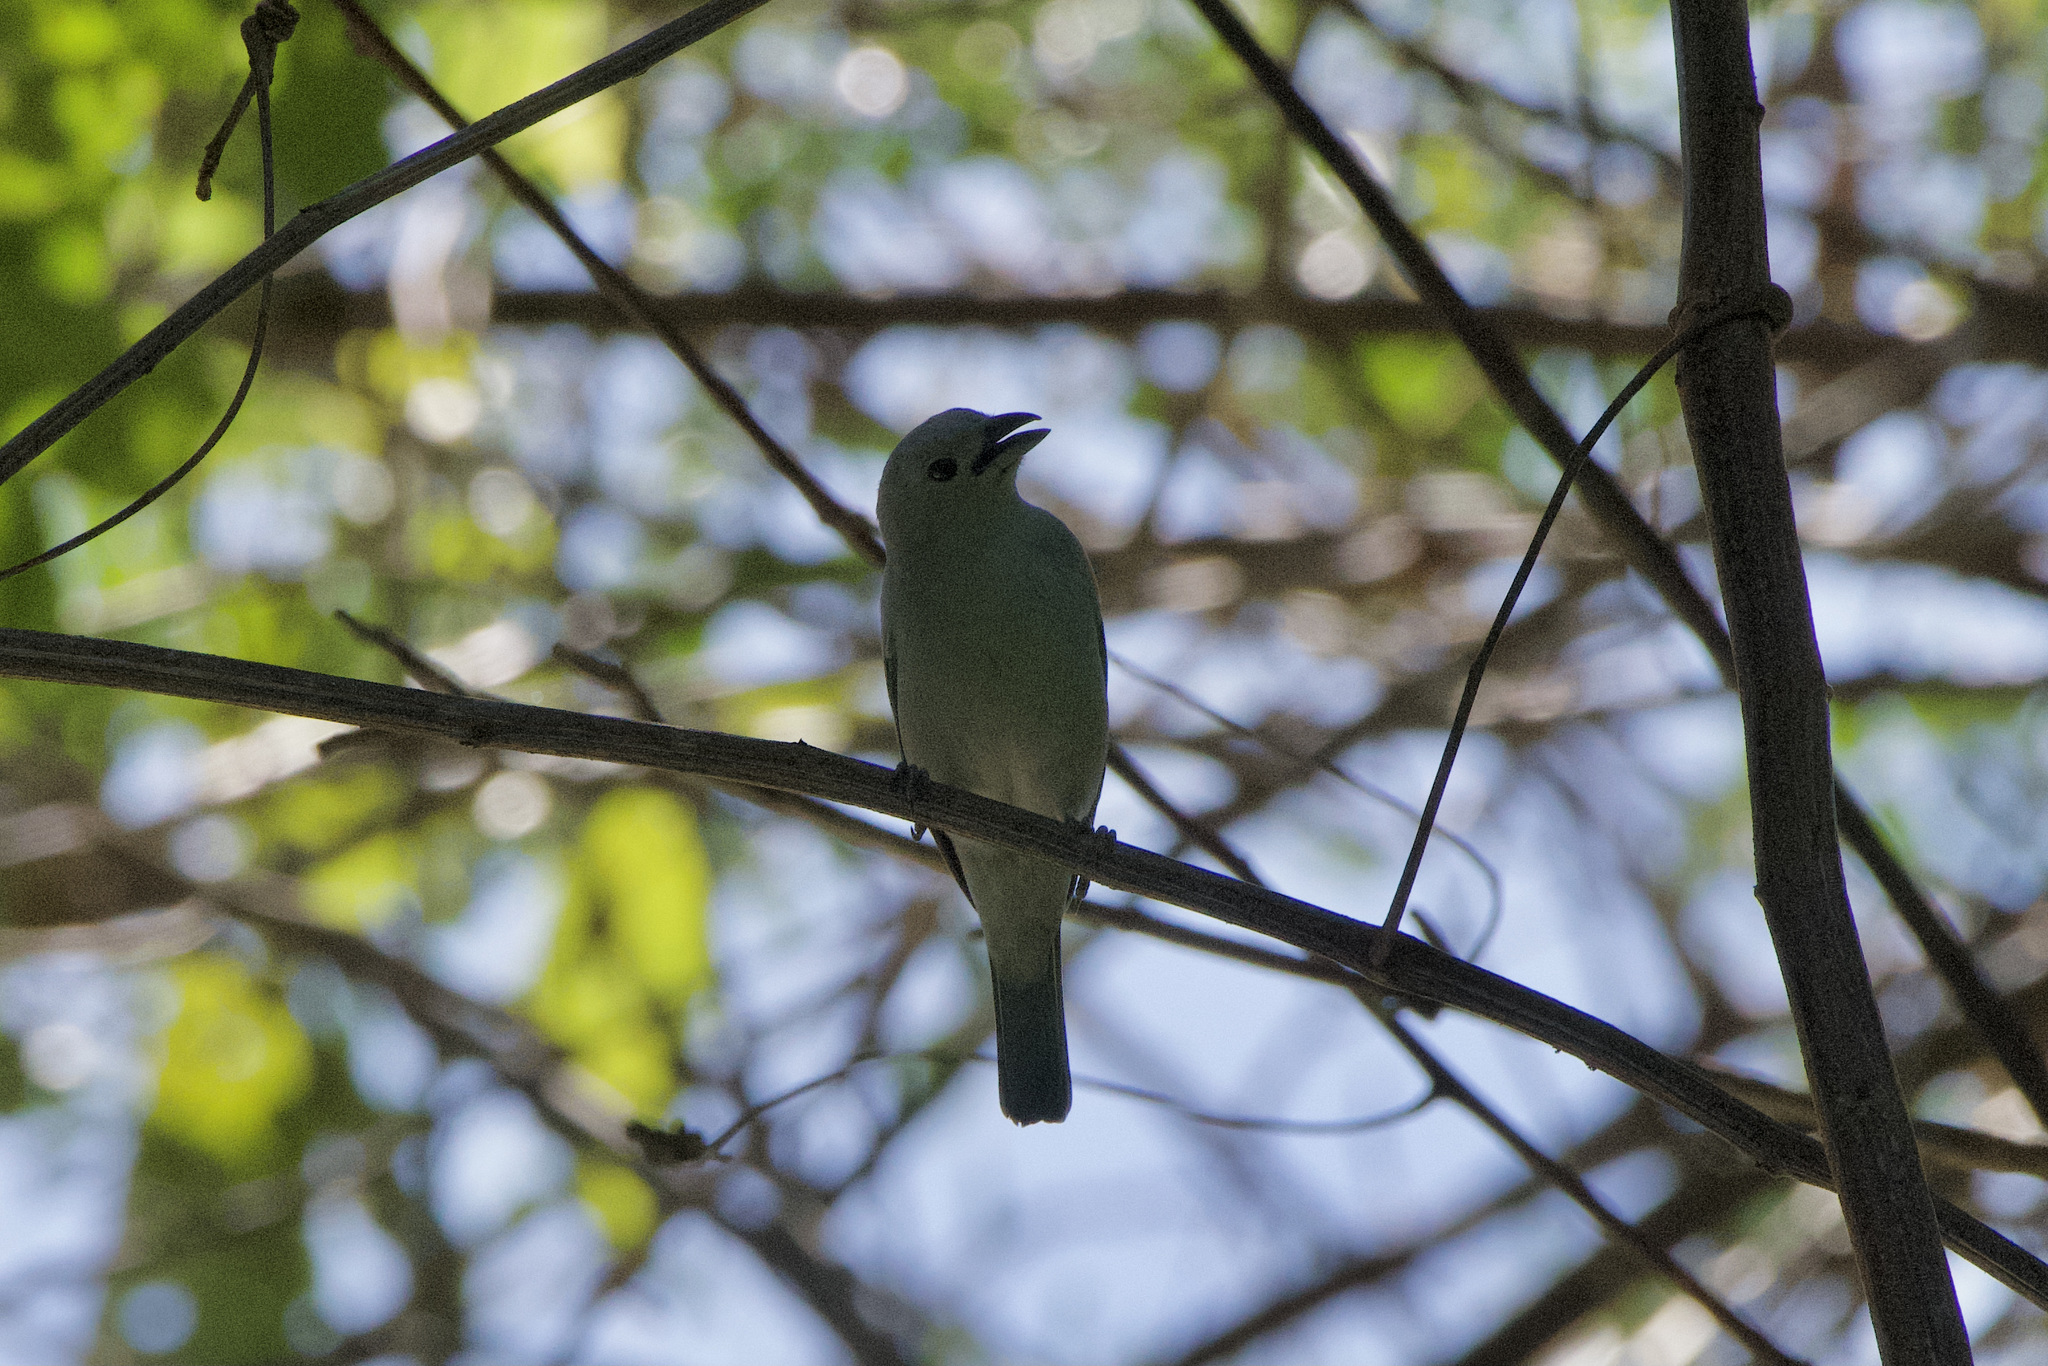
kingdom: Animalia
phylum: Chordata
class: Aves
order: Passeriformes
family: Thraupidae
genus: Thraupis
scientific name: Thraupis episcopus
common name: Blue-grey tanager
